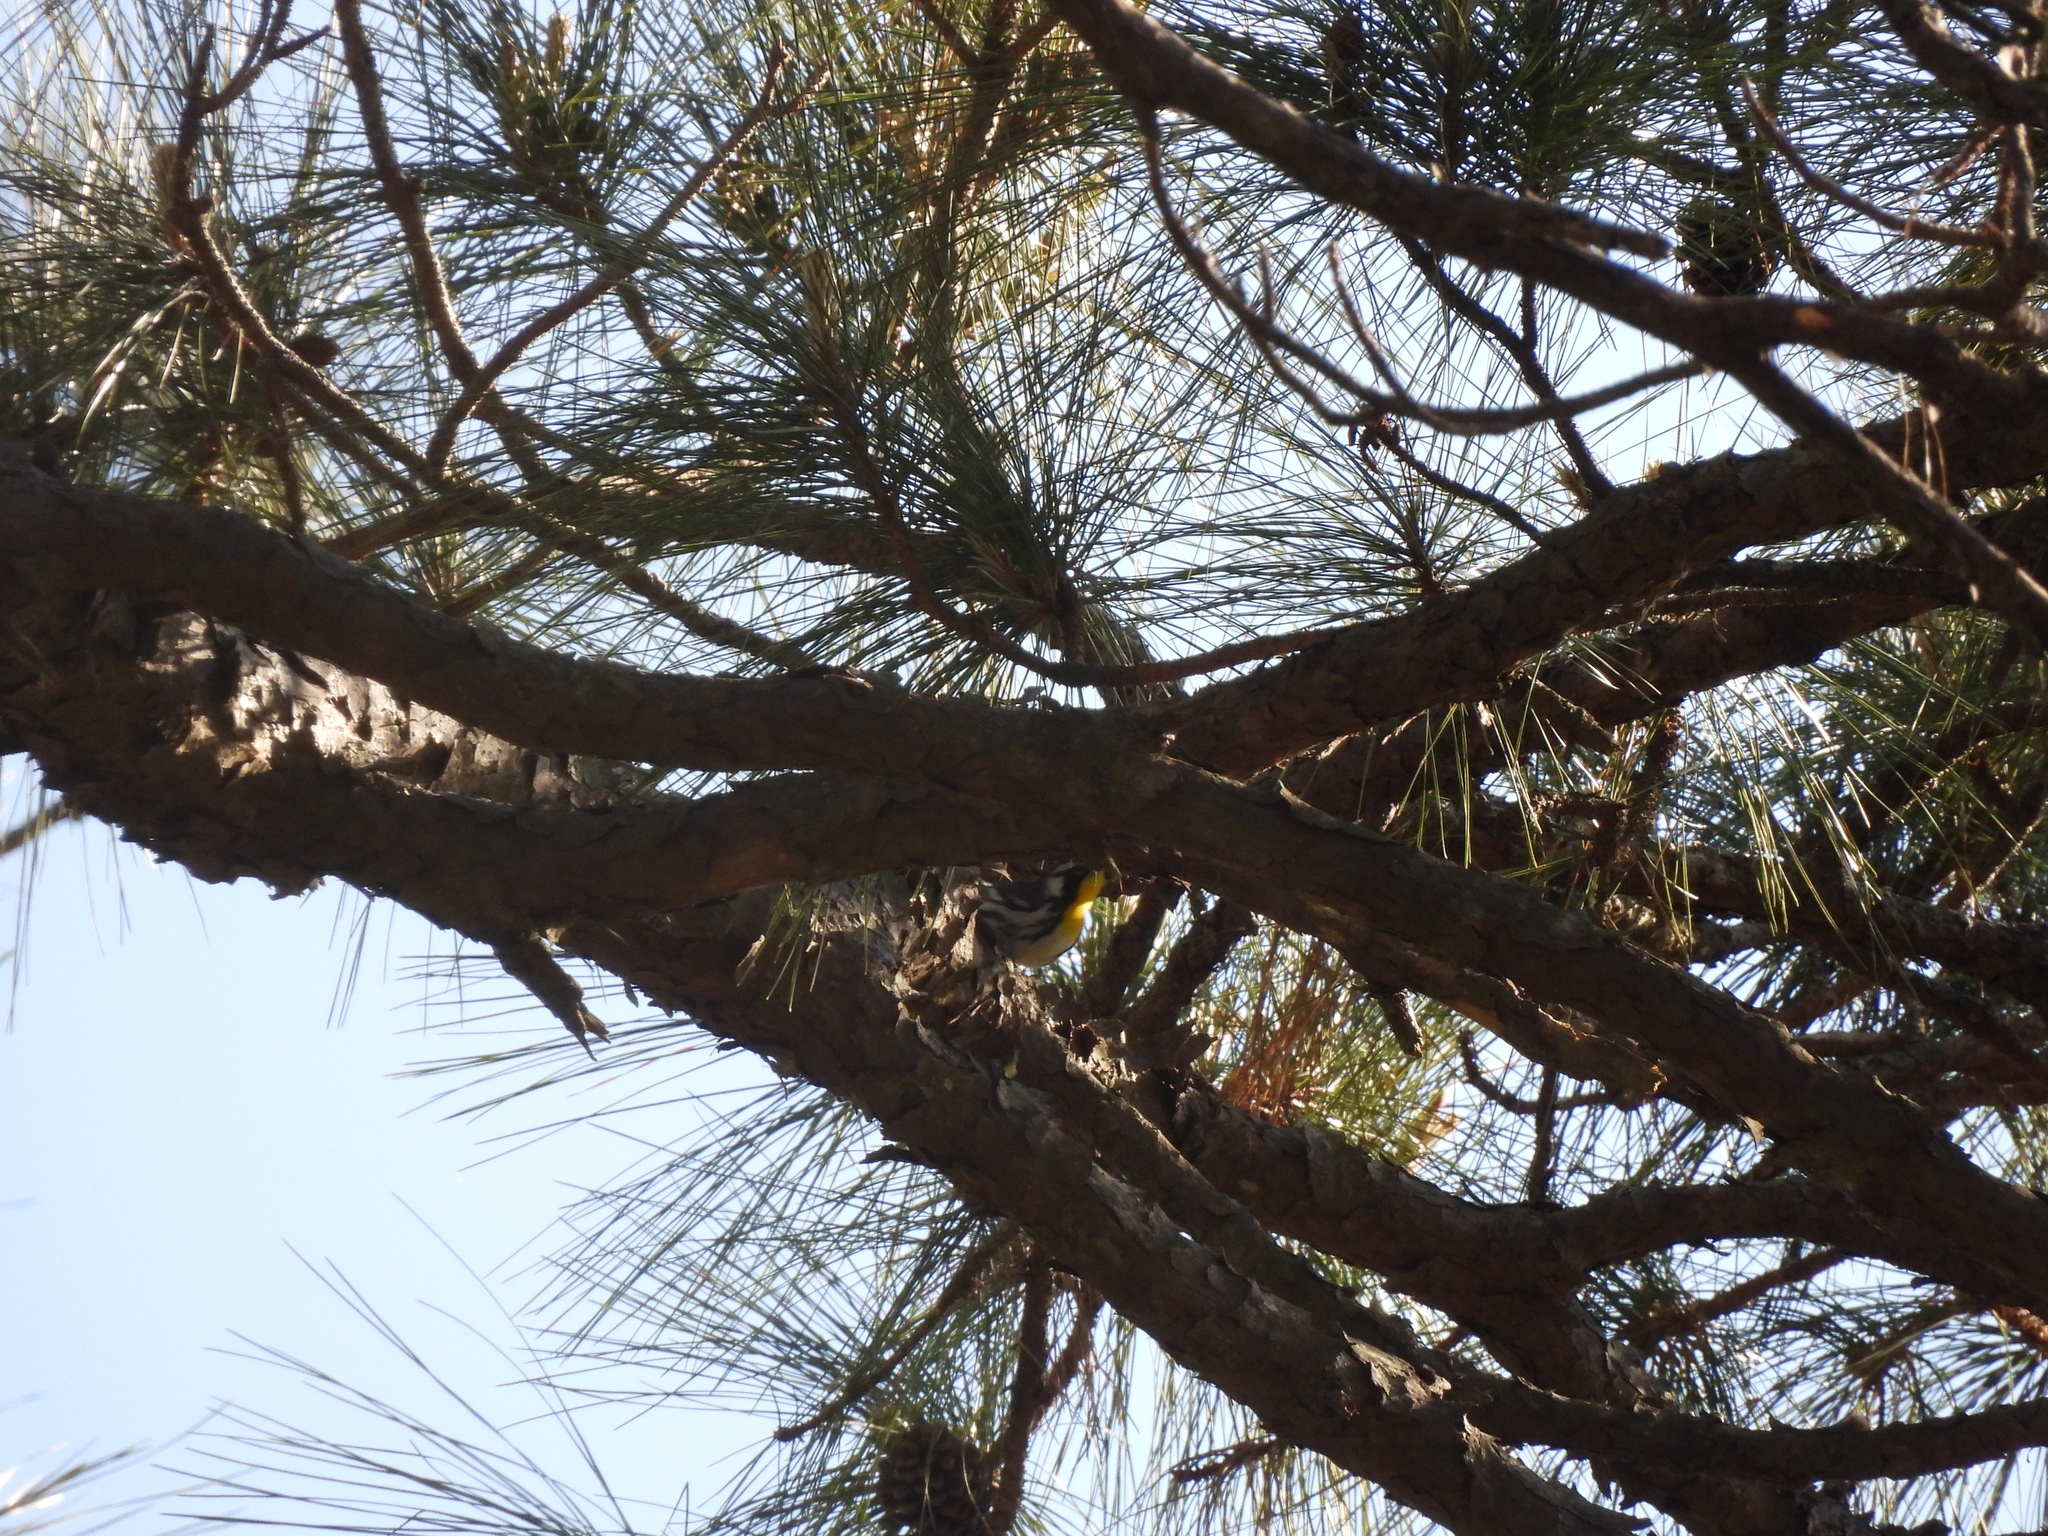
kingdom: Animalia
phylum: Chordata
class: Aves
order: Passeriformes
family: Parulidae
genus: Setophaga
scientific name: Setophaga dominica
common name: Yellow-throated warbler
